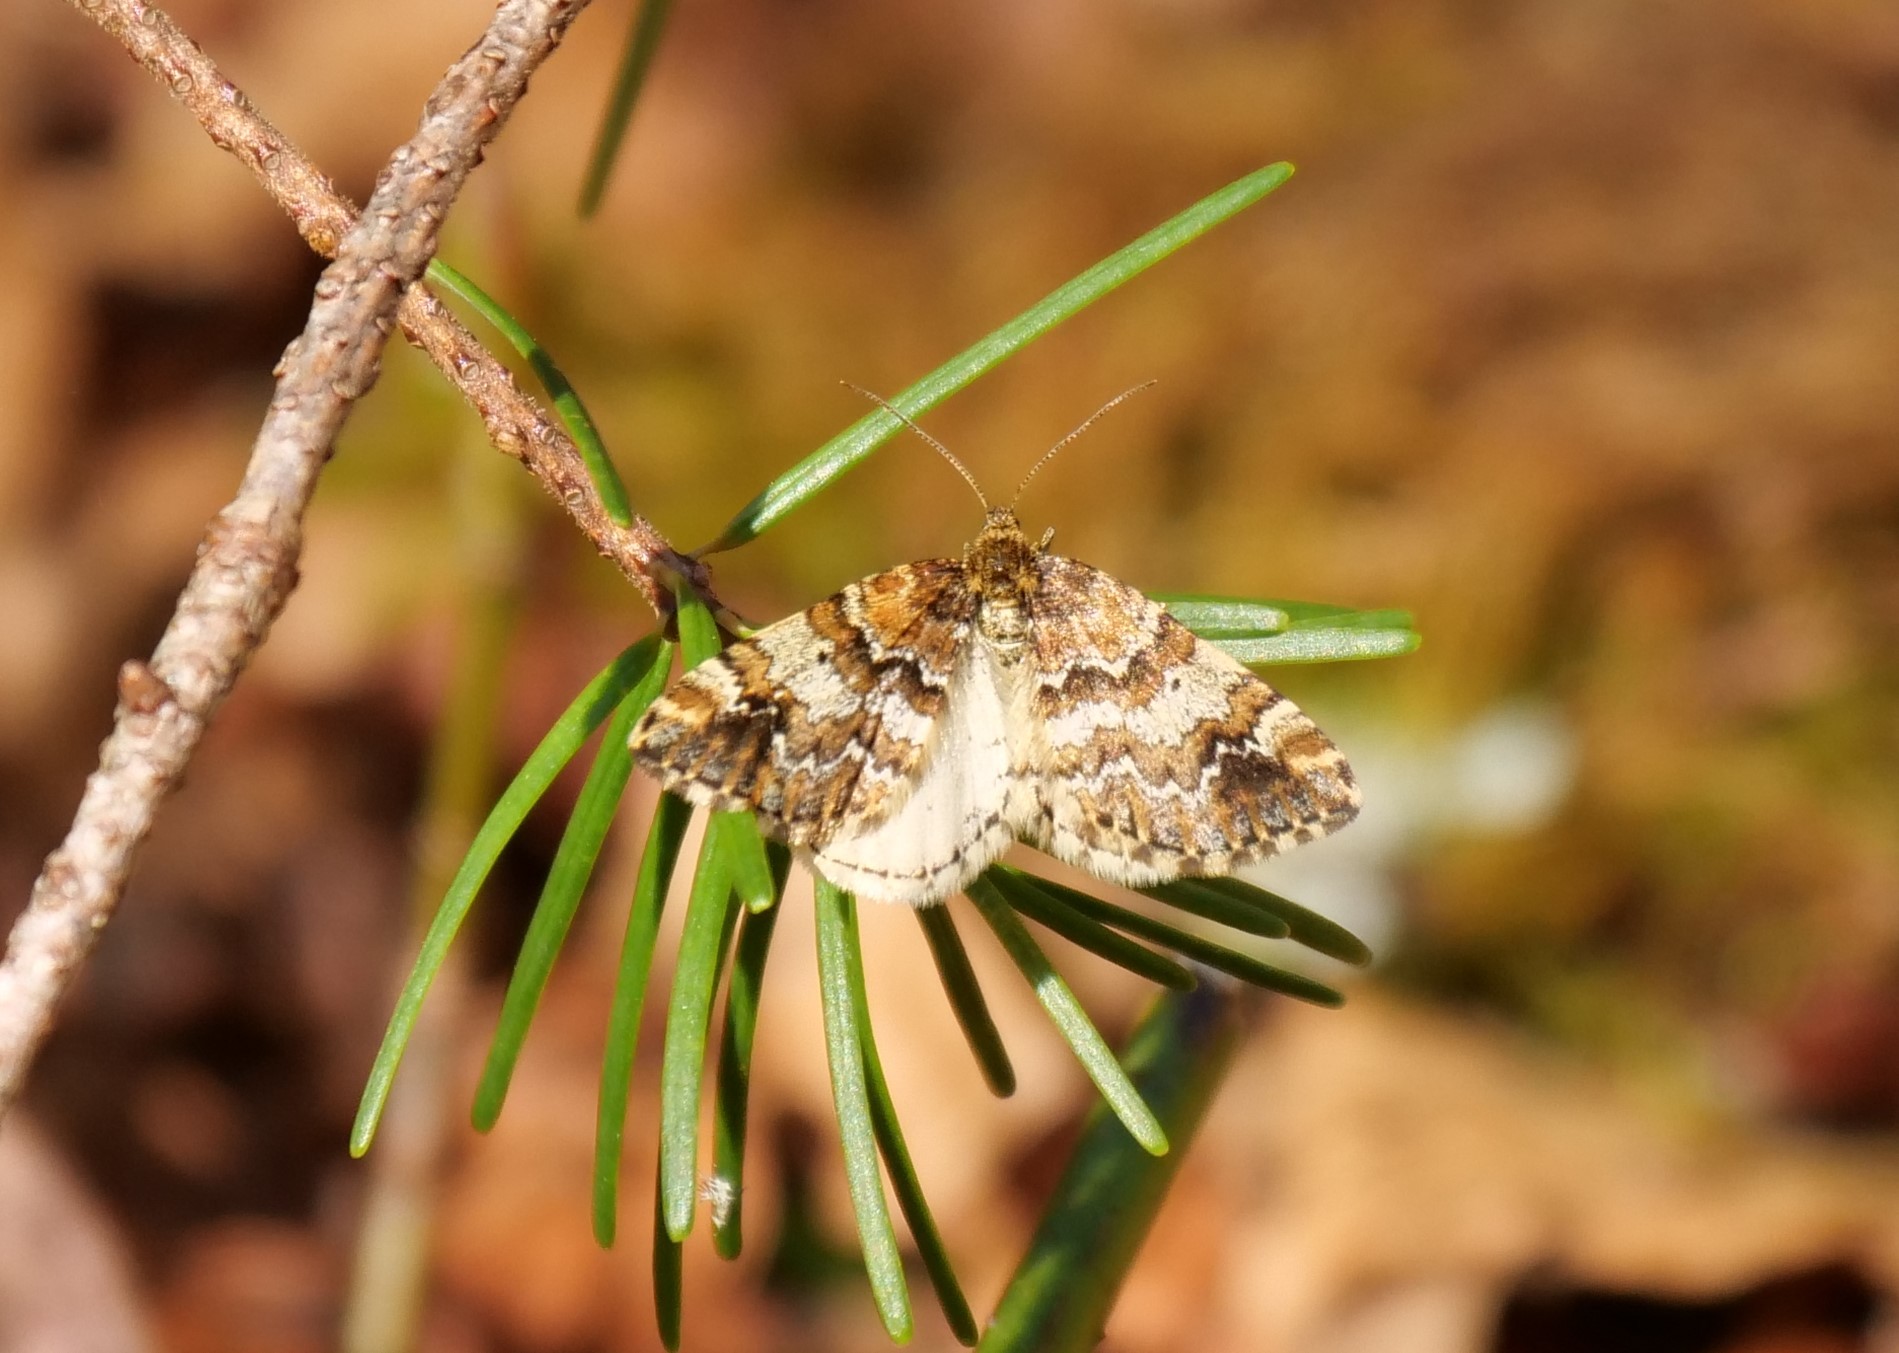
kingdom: Animalia
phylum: Arthropoda
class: Insecta
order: Lepidoptera
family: Geometridae
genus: Enchoria
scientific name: Enchoria lacteata
